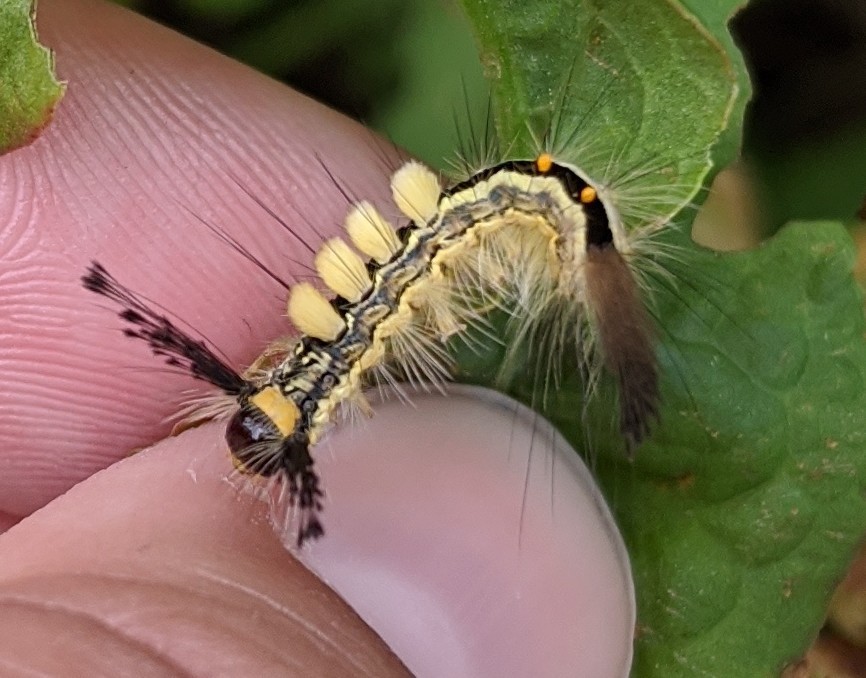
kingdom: Animalia
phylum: Arthropoda
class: Insecta
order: Lepidoptera
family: Erebidae
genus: Orgyia
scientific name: Orgyia leucostigma
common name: White-marked tussock moth
